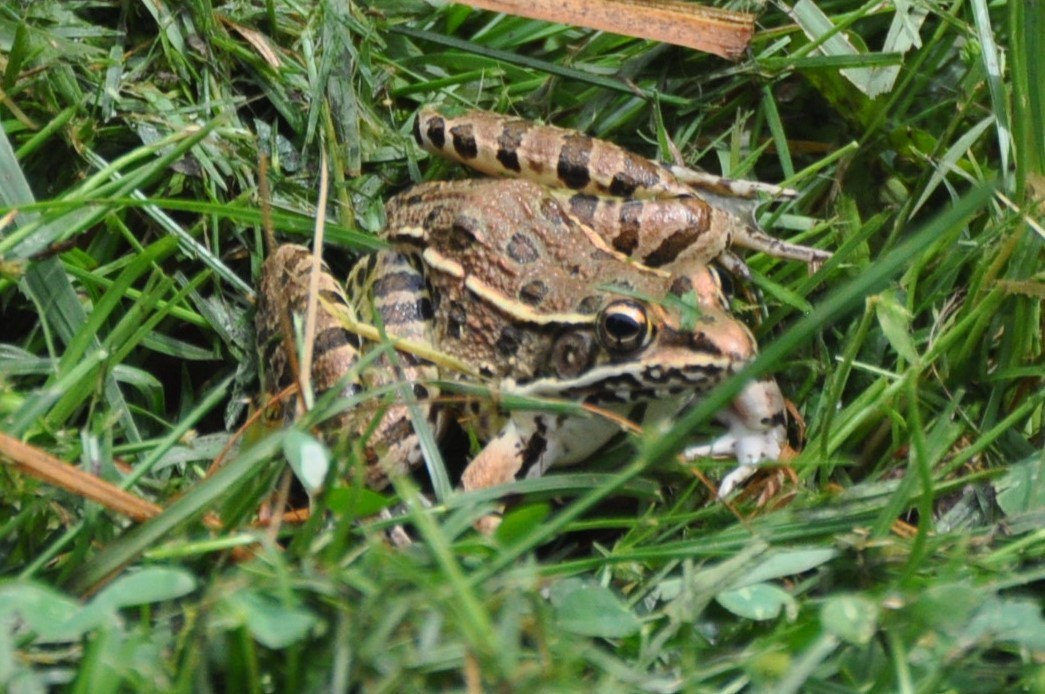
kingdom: Animalia
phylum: Chordata
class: Amphibia
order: Anura
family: Ranidae
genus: Lithobates
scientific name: Lithobates blairi
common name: Plains leopard frog
